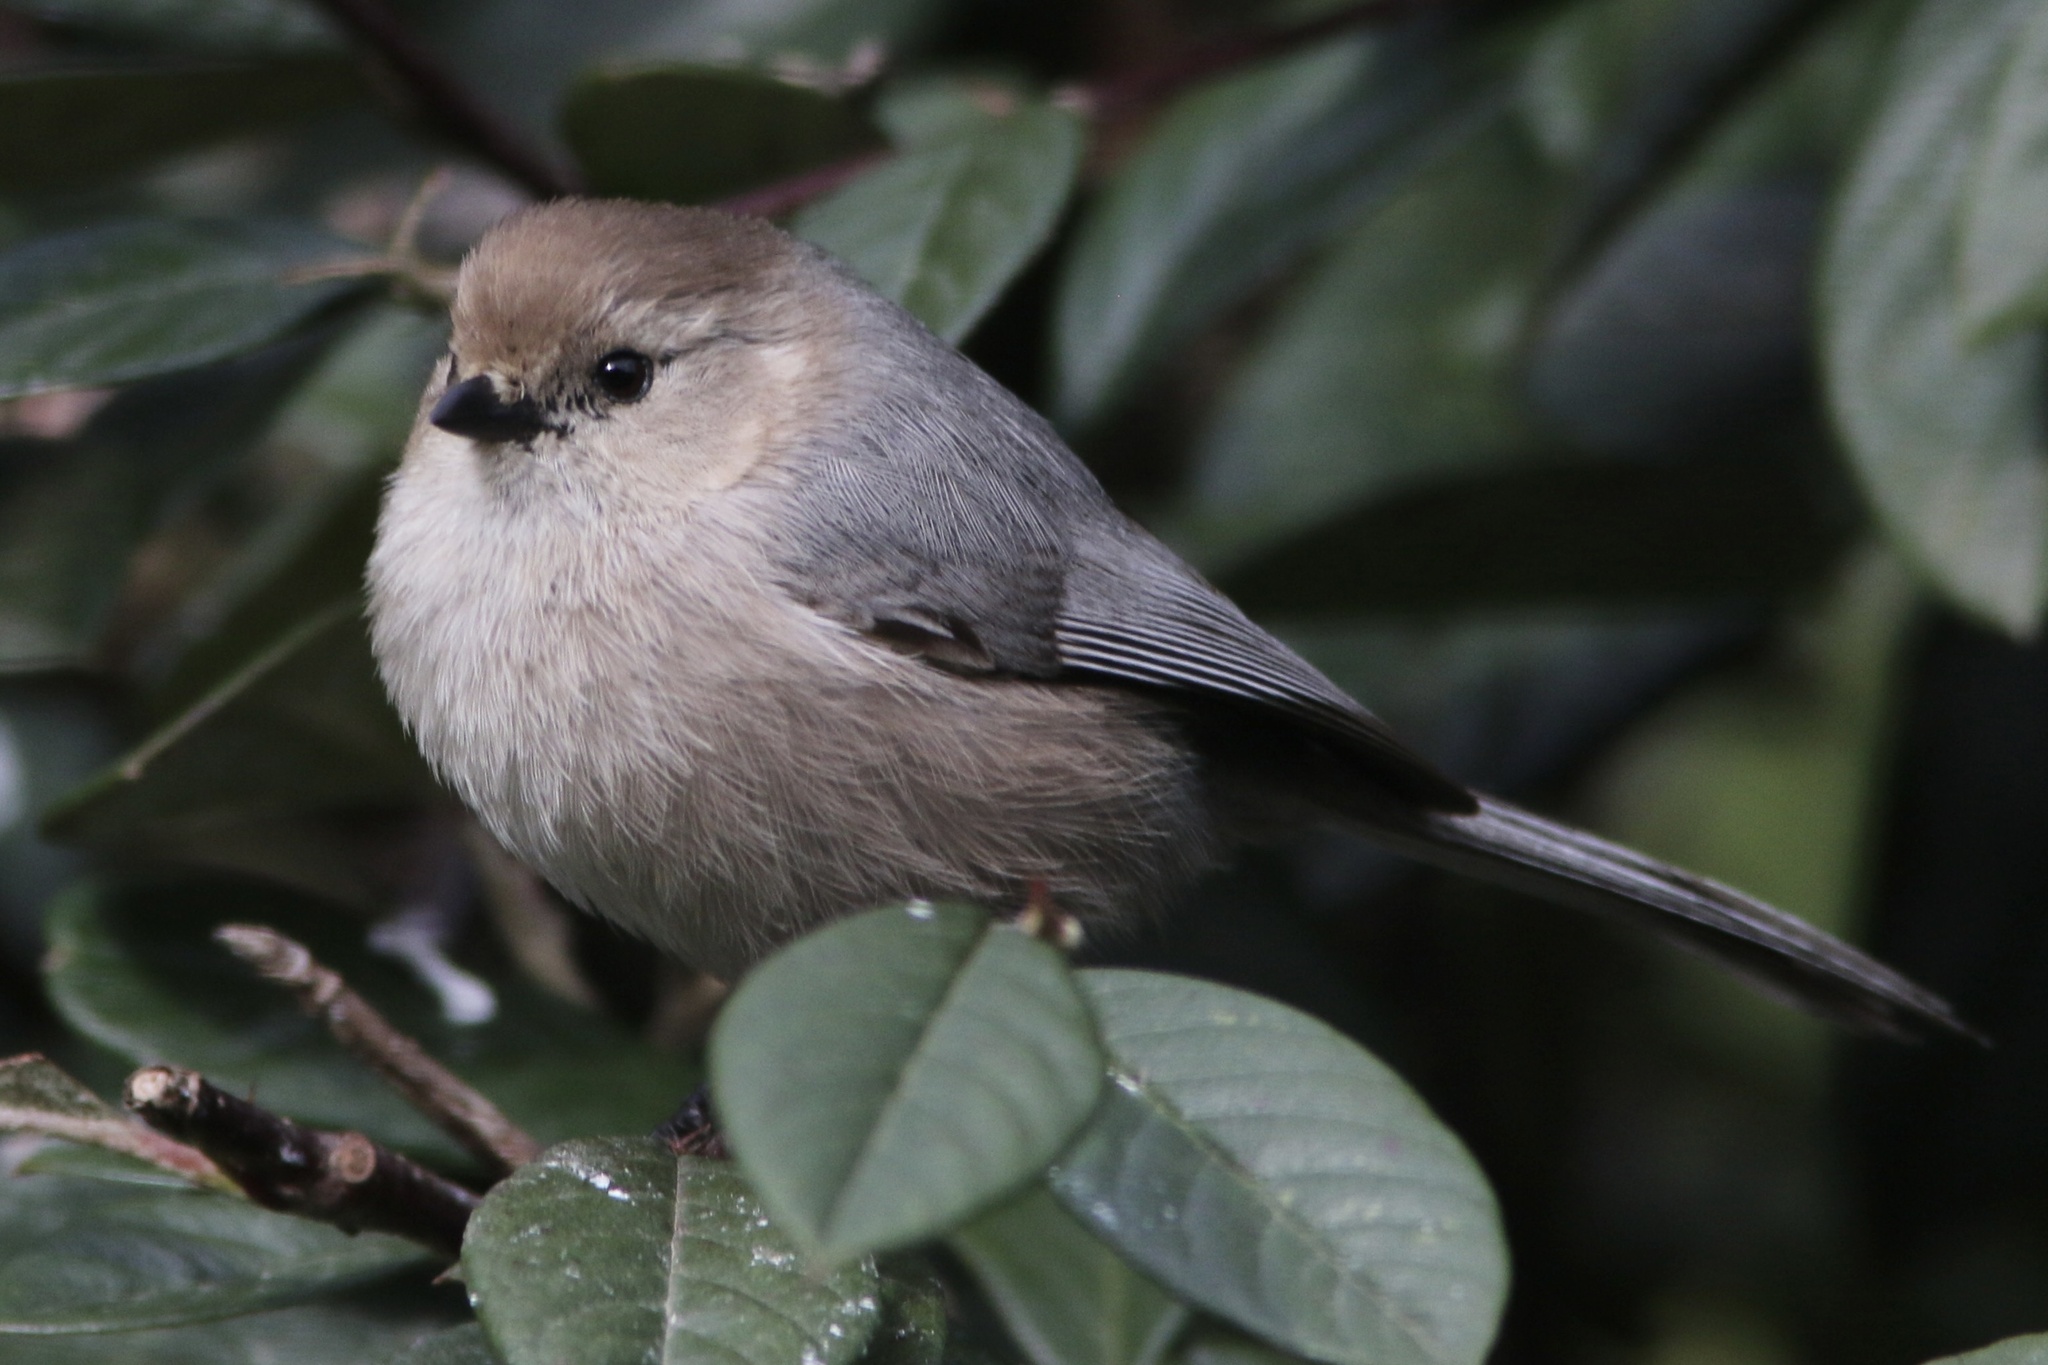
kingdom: Animalia
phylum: Chordata
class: Aves
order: Passeriformes
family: Aegithalidae
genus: Psaltriparus
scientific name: Psaltriparus minimus
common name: American bushtit
